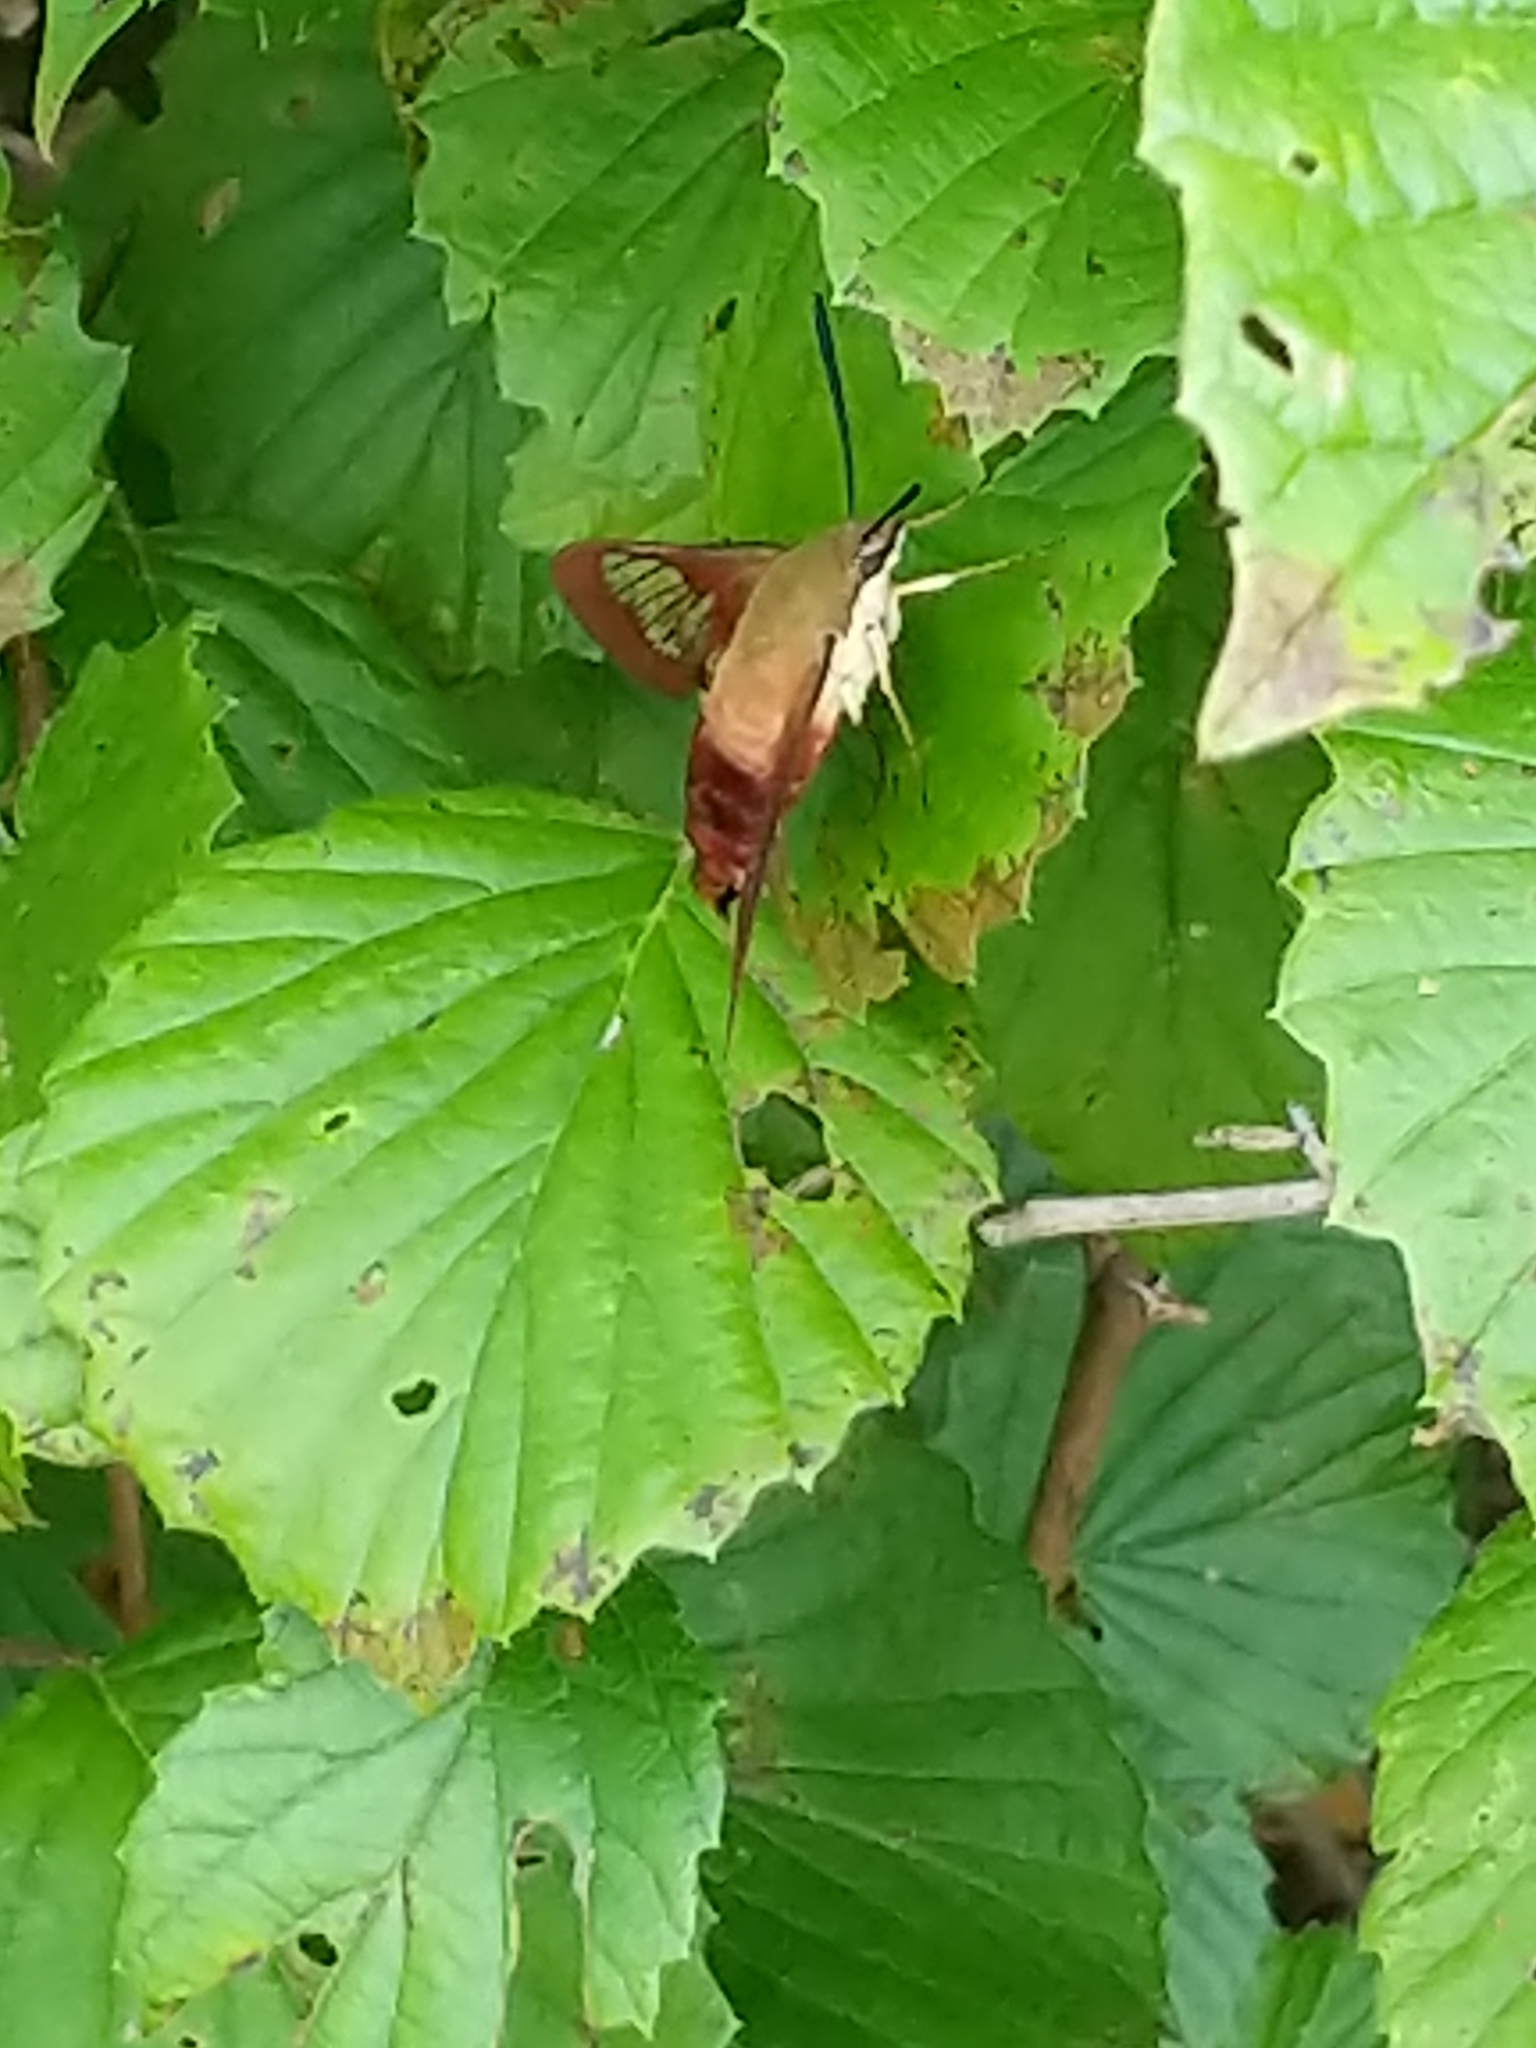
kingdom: Animalia
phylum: Arthropoda
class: Insecta
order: Lepidoptera
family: Sphingidae
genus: Hemaris
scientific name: Hemaris thysbe
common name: Common clear-wing
